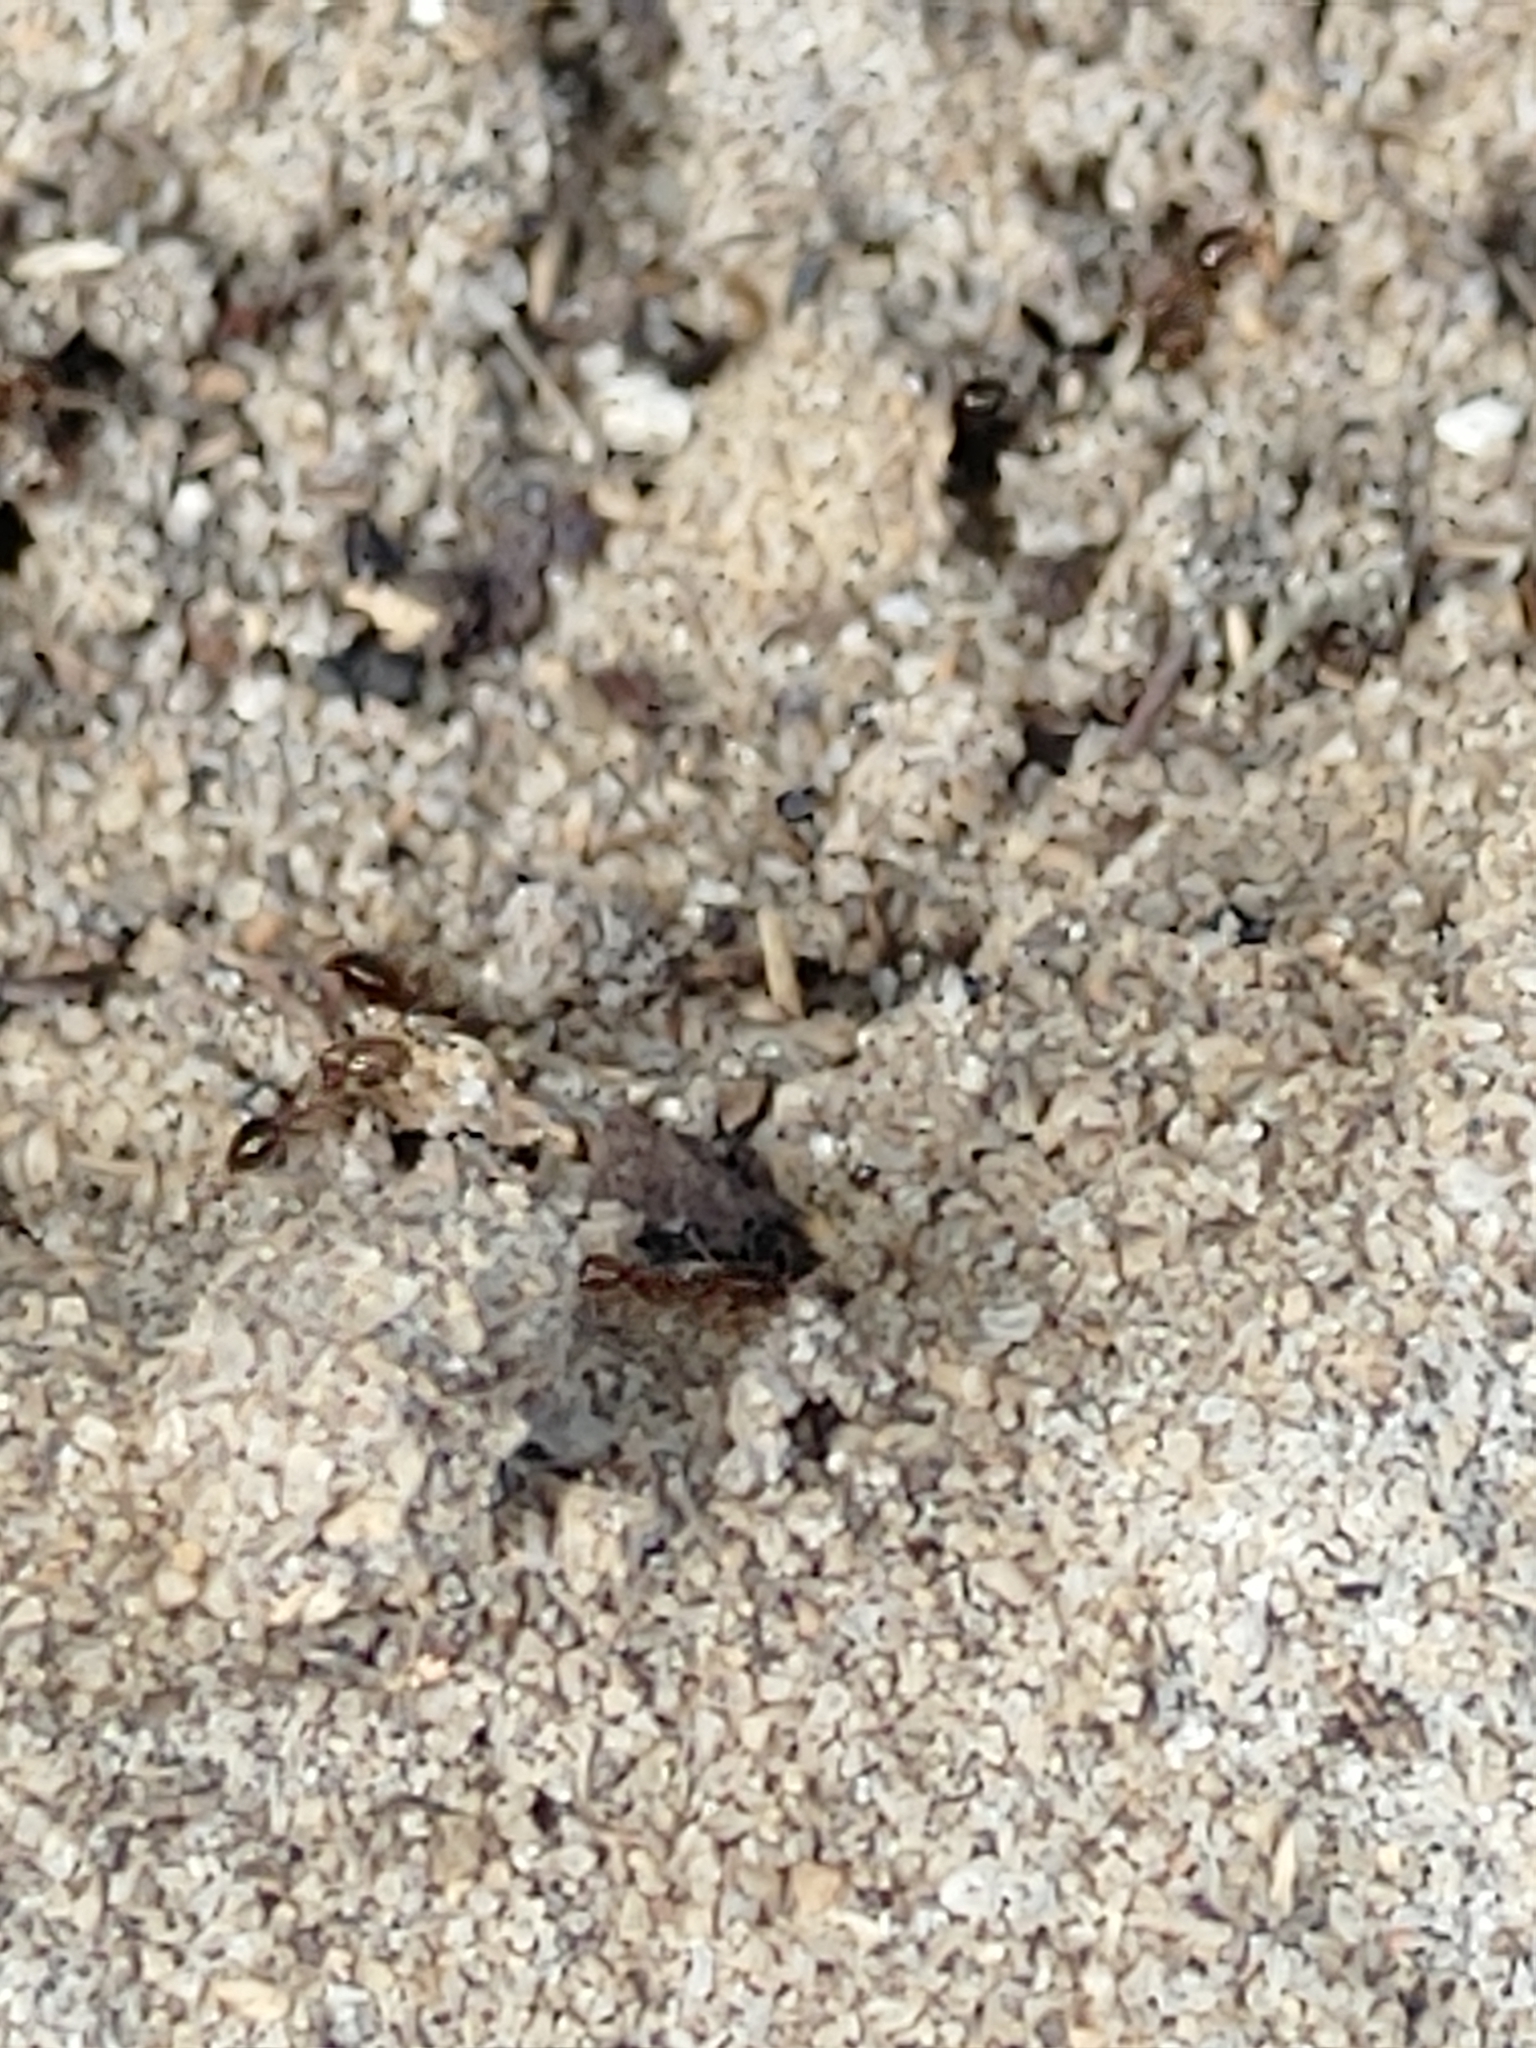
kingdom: Animalia
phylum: Arthropoda
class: Insecta
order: Hymenoptera
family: Formicidae
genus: Solenopsis
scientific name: Solenopsis invicta
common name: Red imported fire ant
